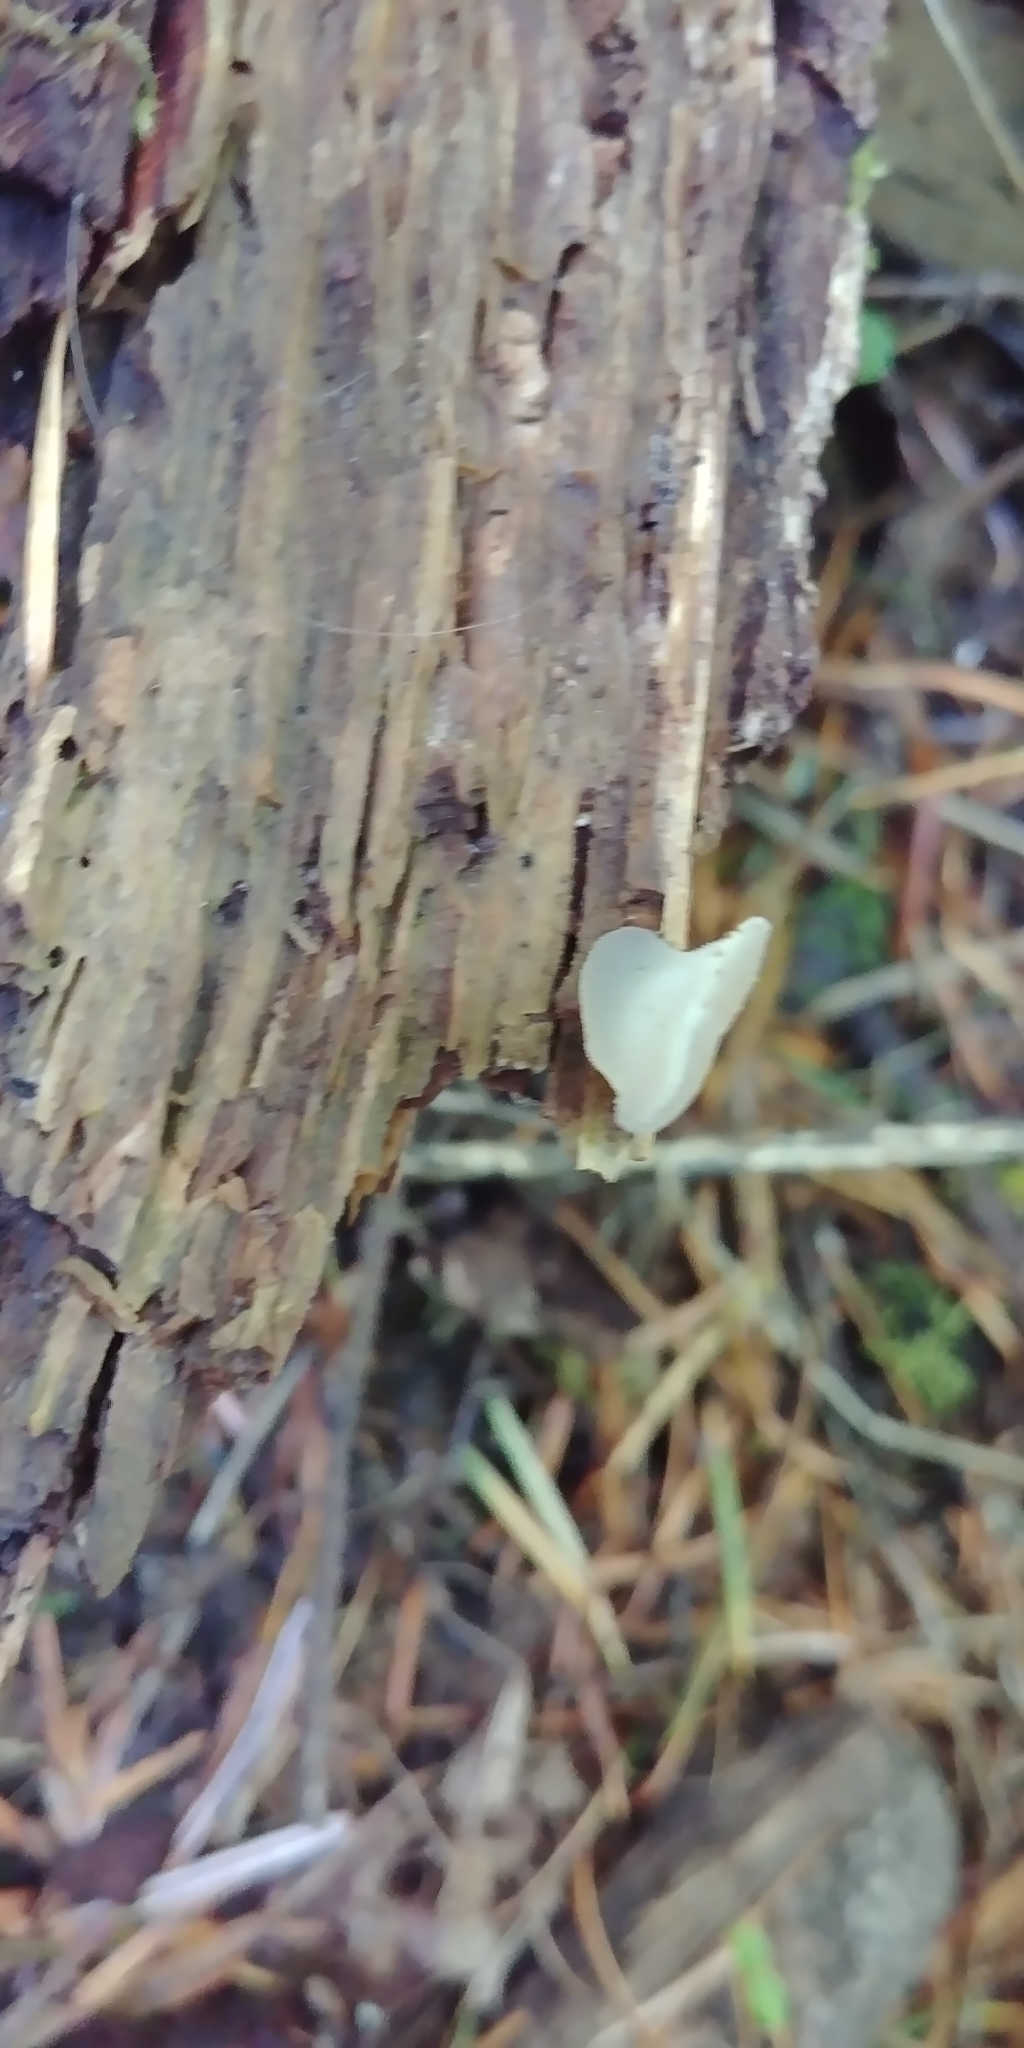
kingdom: Fungi
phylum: Basidiomycota
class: Agaricomycetes
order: Auriculariales
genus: Pseudohydnum
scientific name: Pseudohydnum gelatinosum
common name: Jelly tongue
